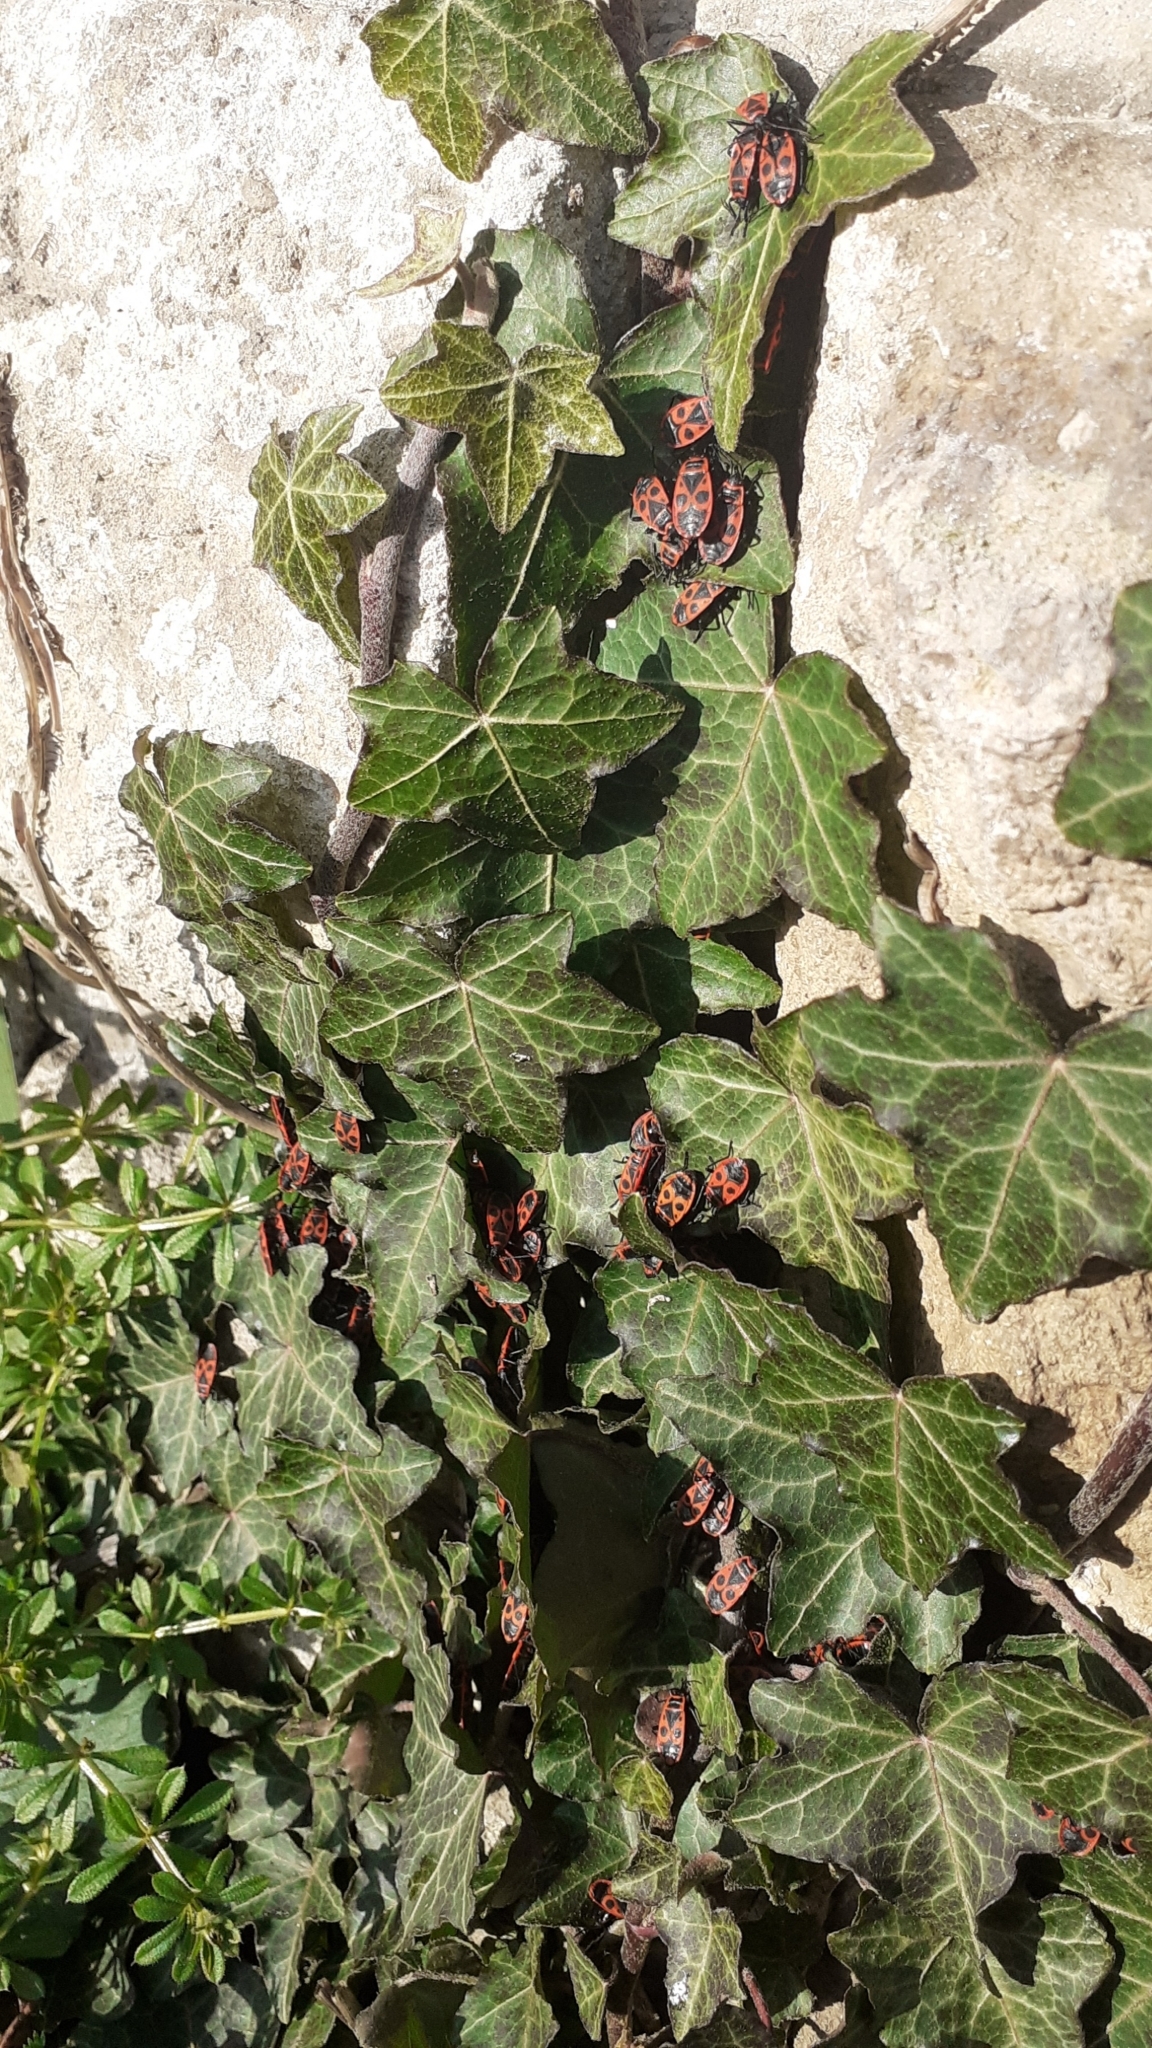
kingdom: Animalia
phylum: Arthropoda
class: Insecta
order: Hemiptera
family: Pyrrhocoridae
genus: Pyrrhocoris
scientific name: Pyrrhocoris apterus
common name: Firebug
